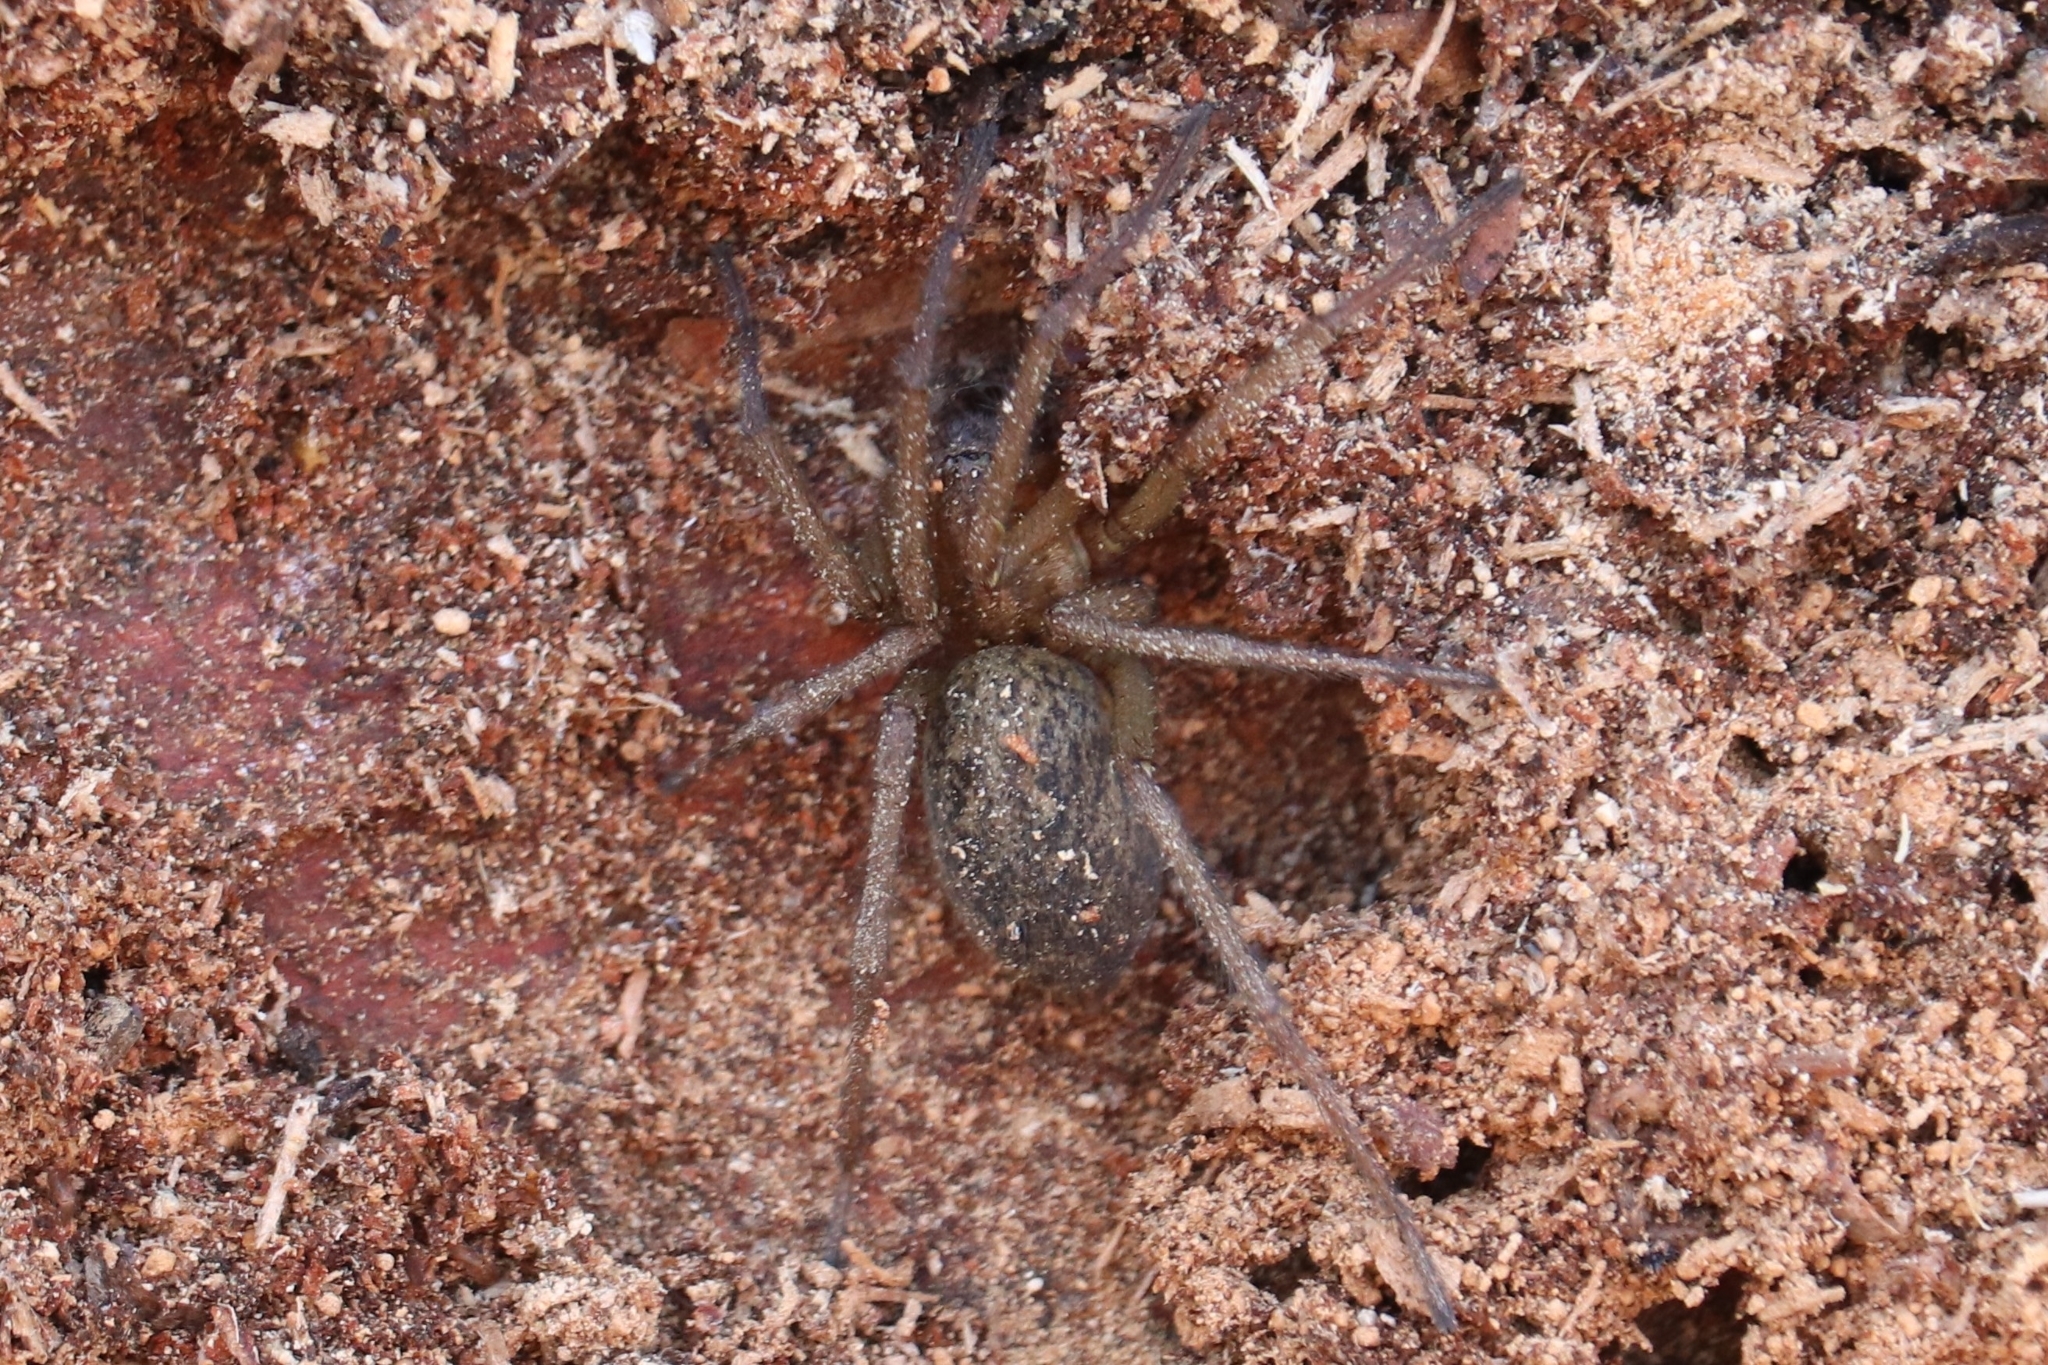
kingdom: Animalia
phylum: Arthropoda
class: Arachnida
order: Araneae
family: Agelenidae
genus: Eratigena
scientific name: Eratigena agrestis
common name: Hobo spider
